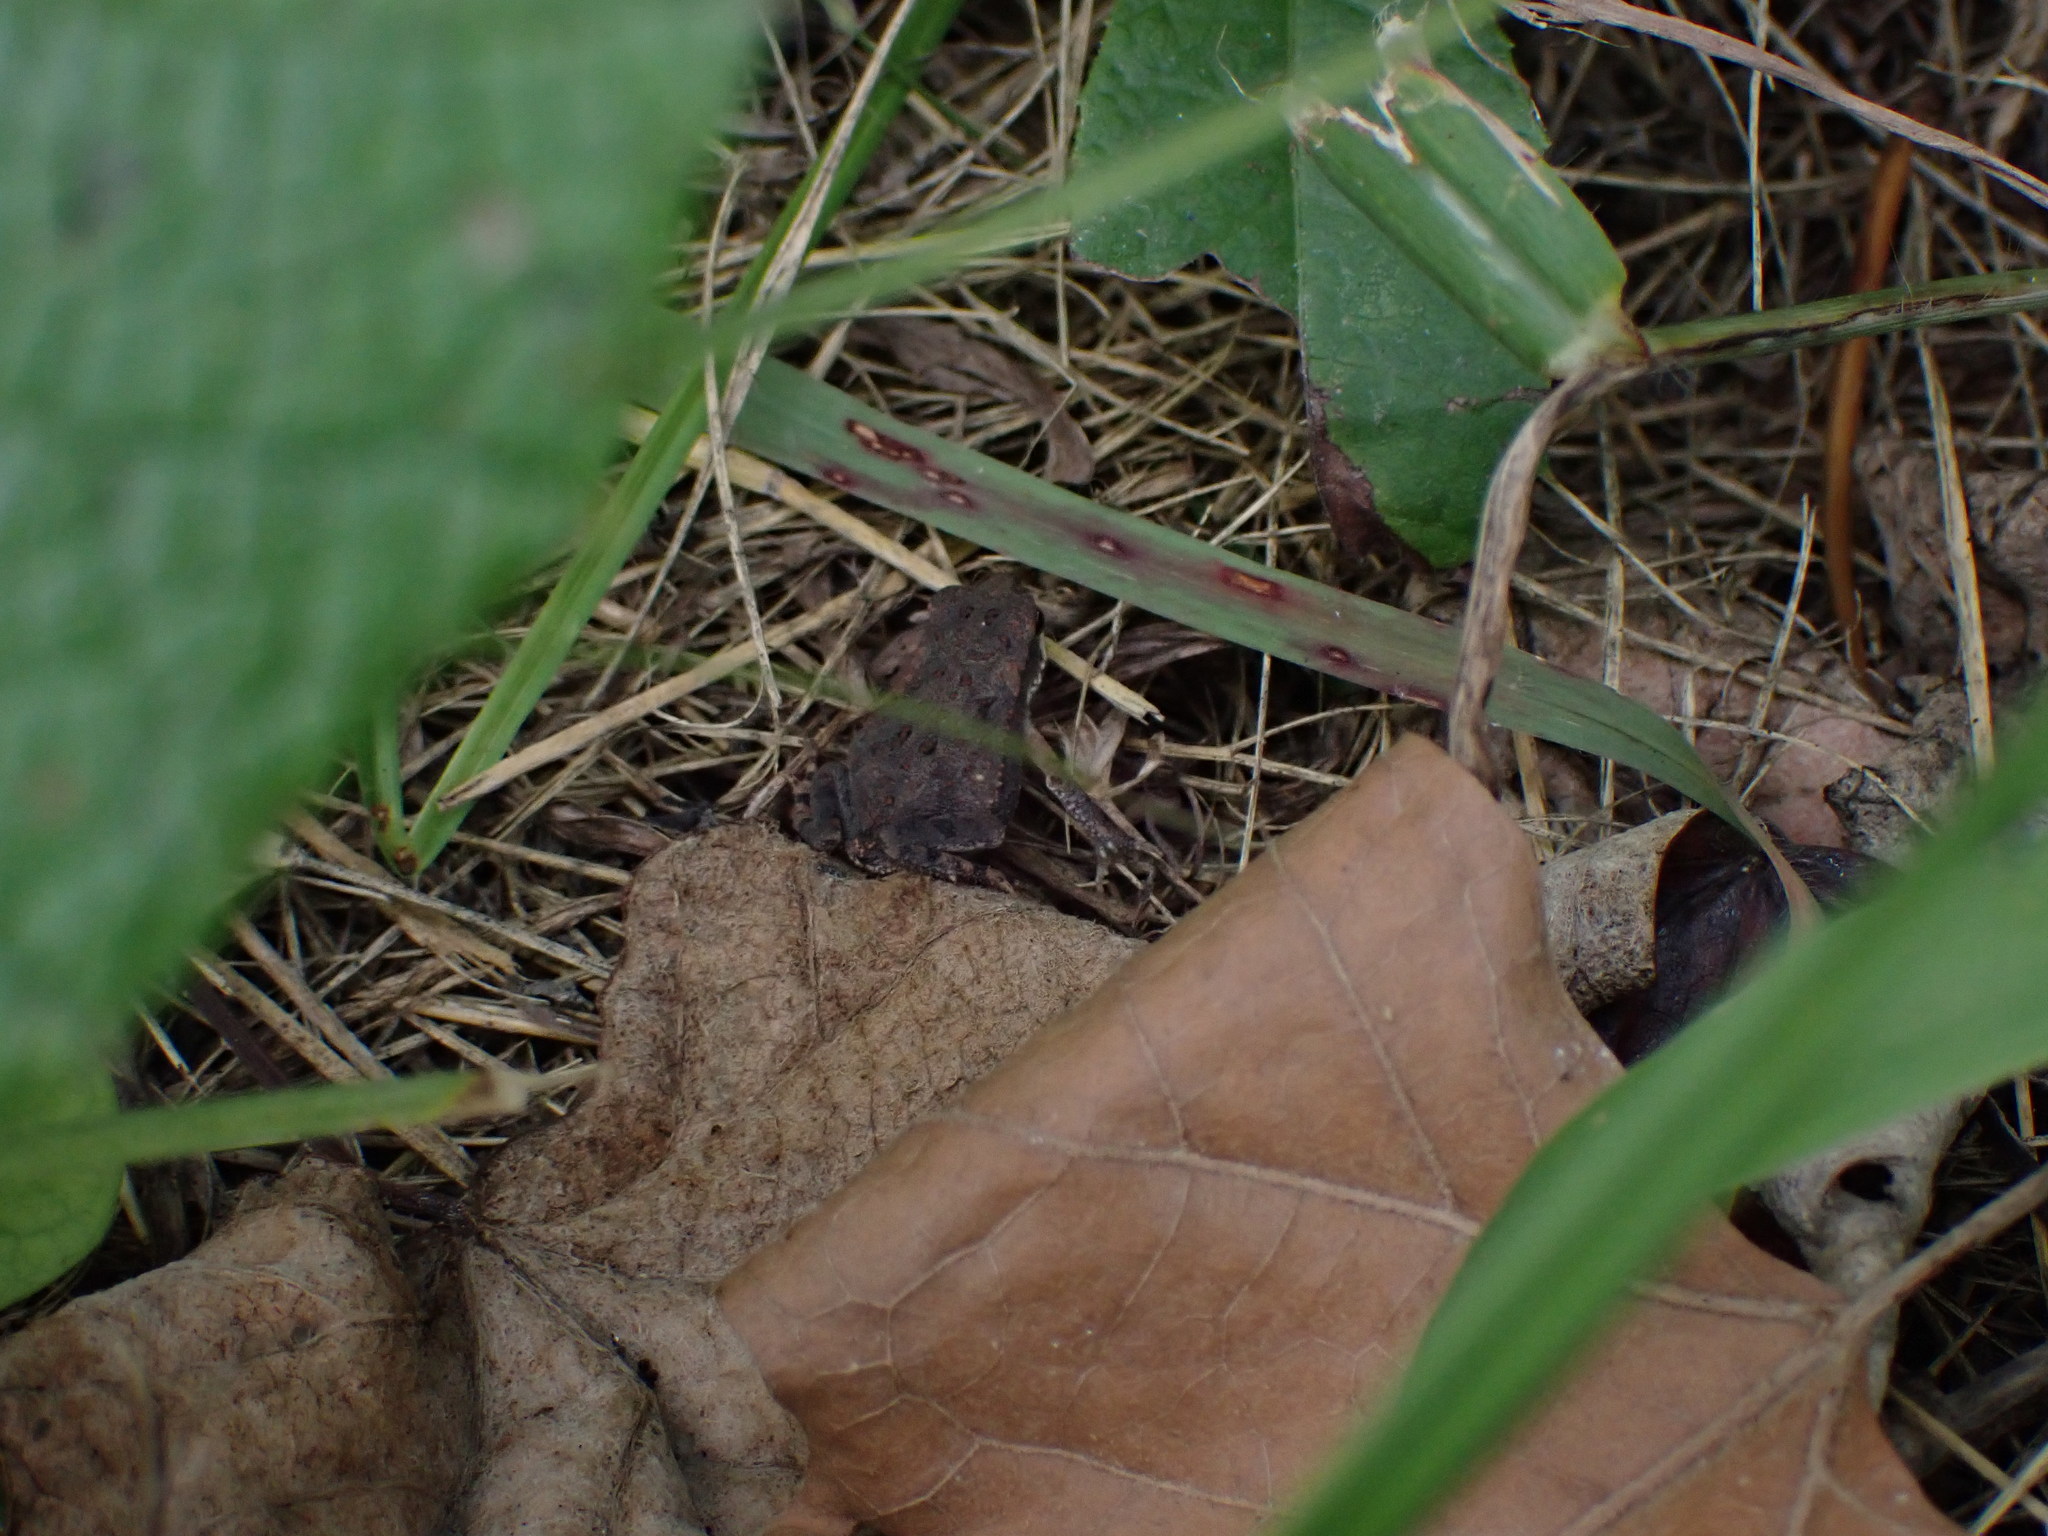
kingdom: Animalia
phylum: Chordata
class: Amphibia
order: Anura
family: Bufonidae
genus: Incilius
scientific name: Incilius nebulifer
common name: Gulf coast toad
